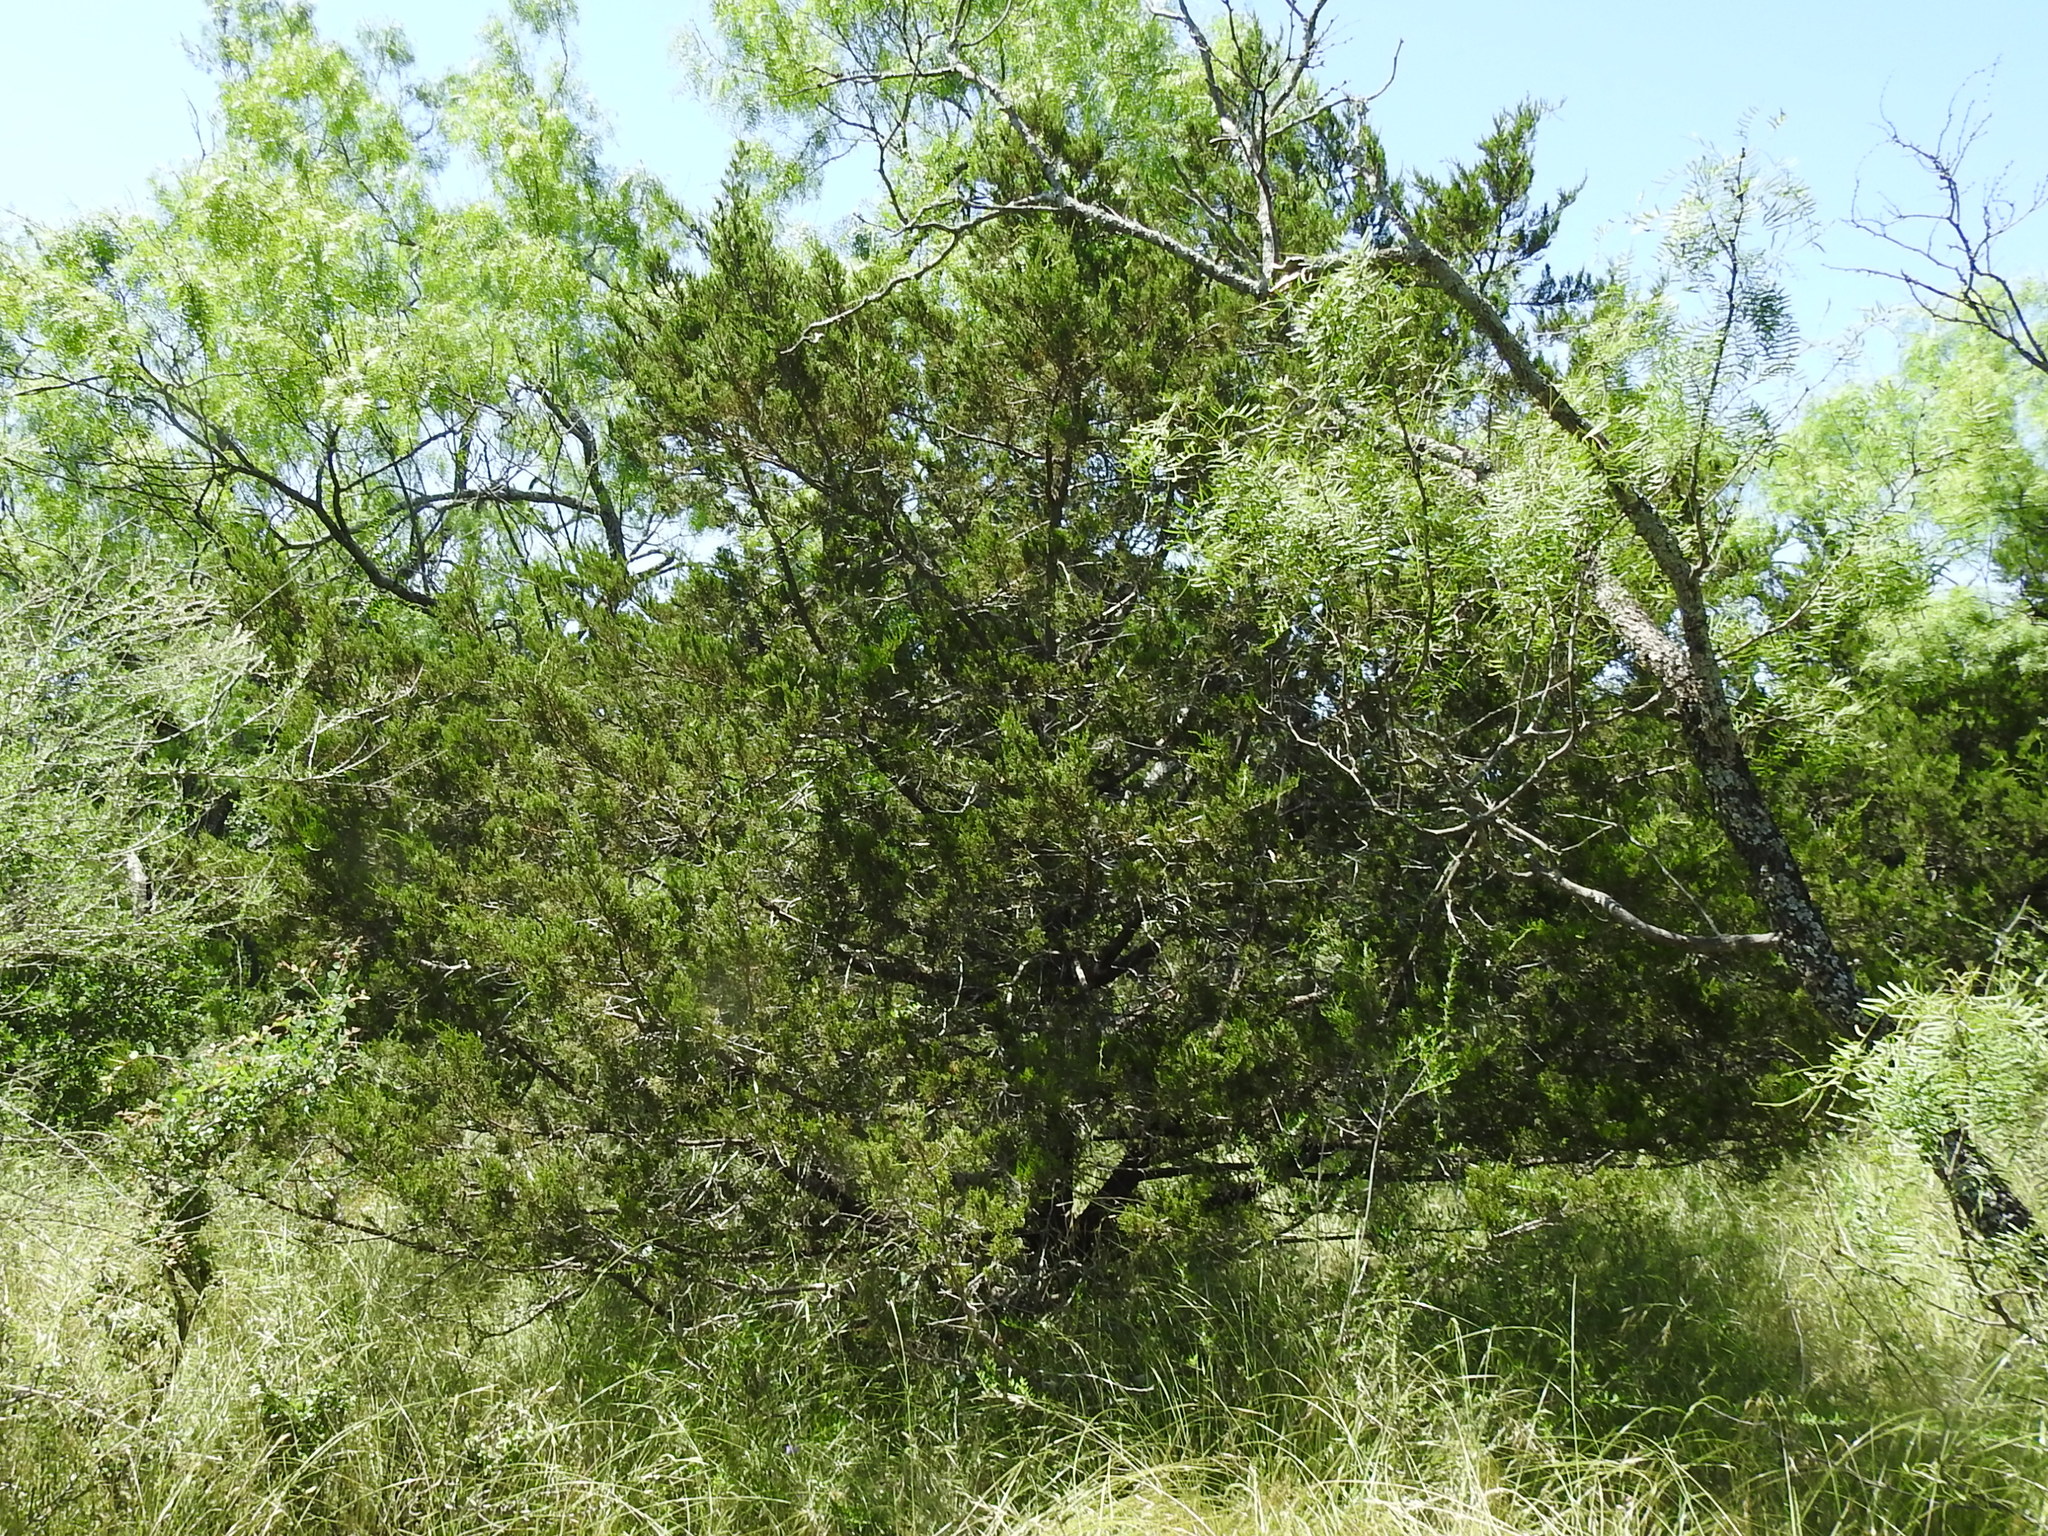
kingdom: Plantae
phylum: Tracheophyta
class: Pinopsida
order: Pinales
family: Cupressaceae
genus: Juniperus
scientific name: Juniperus ashei
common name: Mexican juniper
